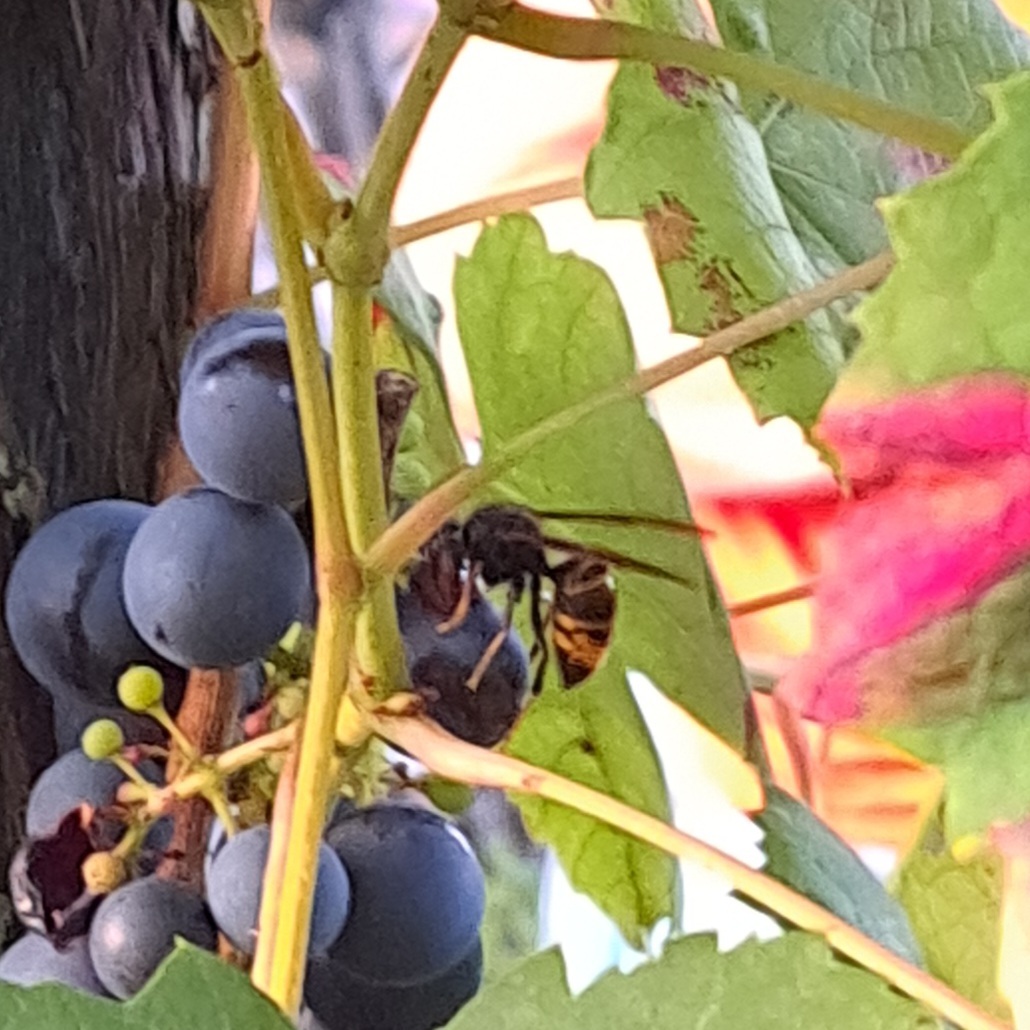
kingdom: Animalia
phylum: Arthropoda
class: Insecta
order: Hymenoptera
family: Vespidae
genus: Vespa
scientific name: Vespa velutina
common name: Asian hornet
